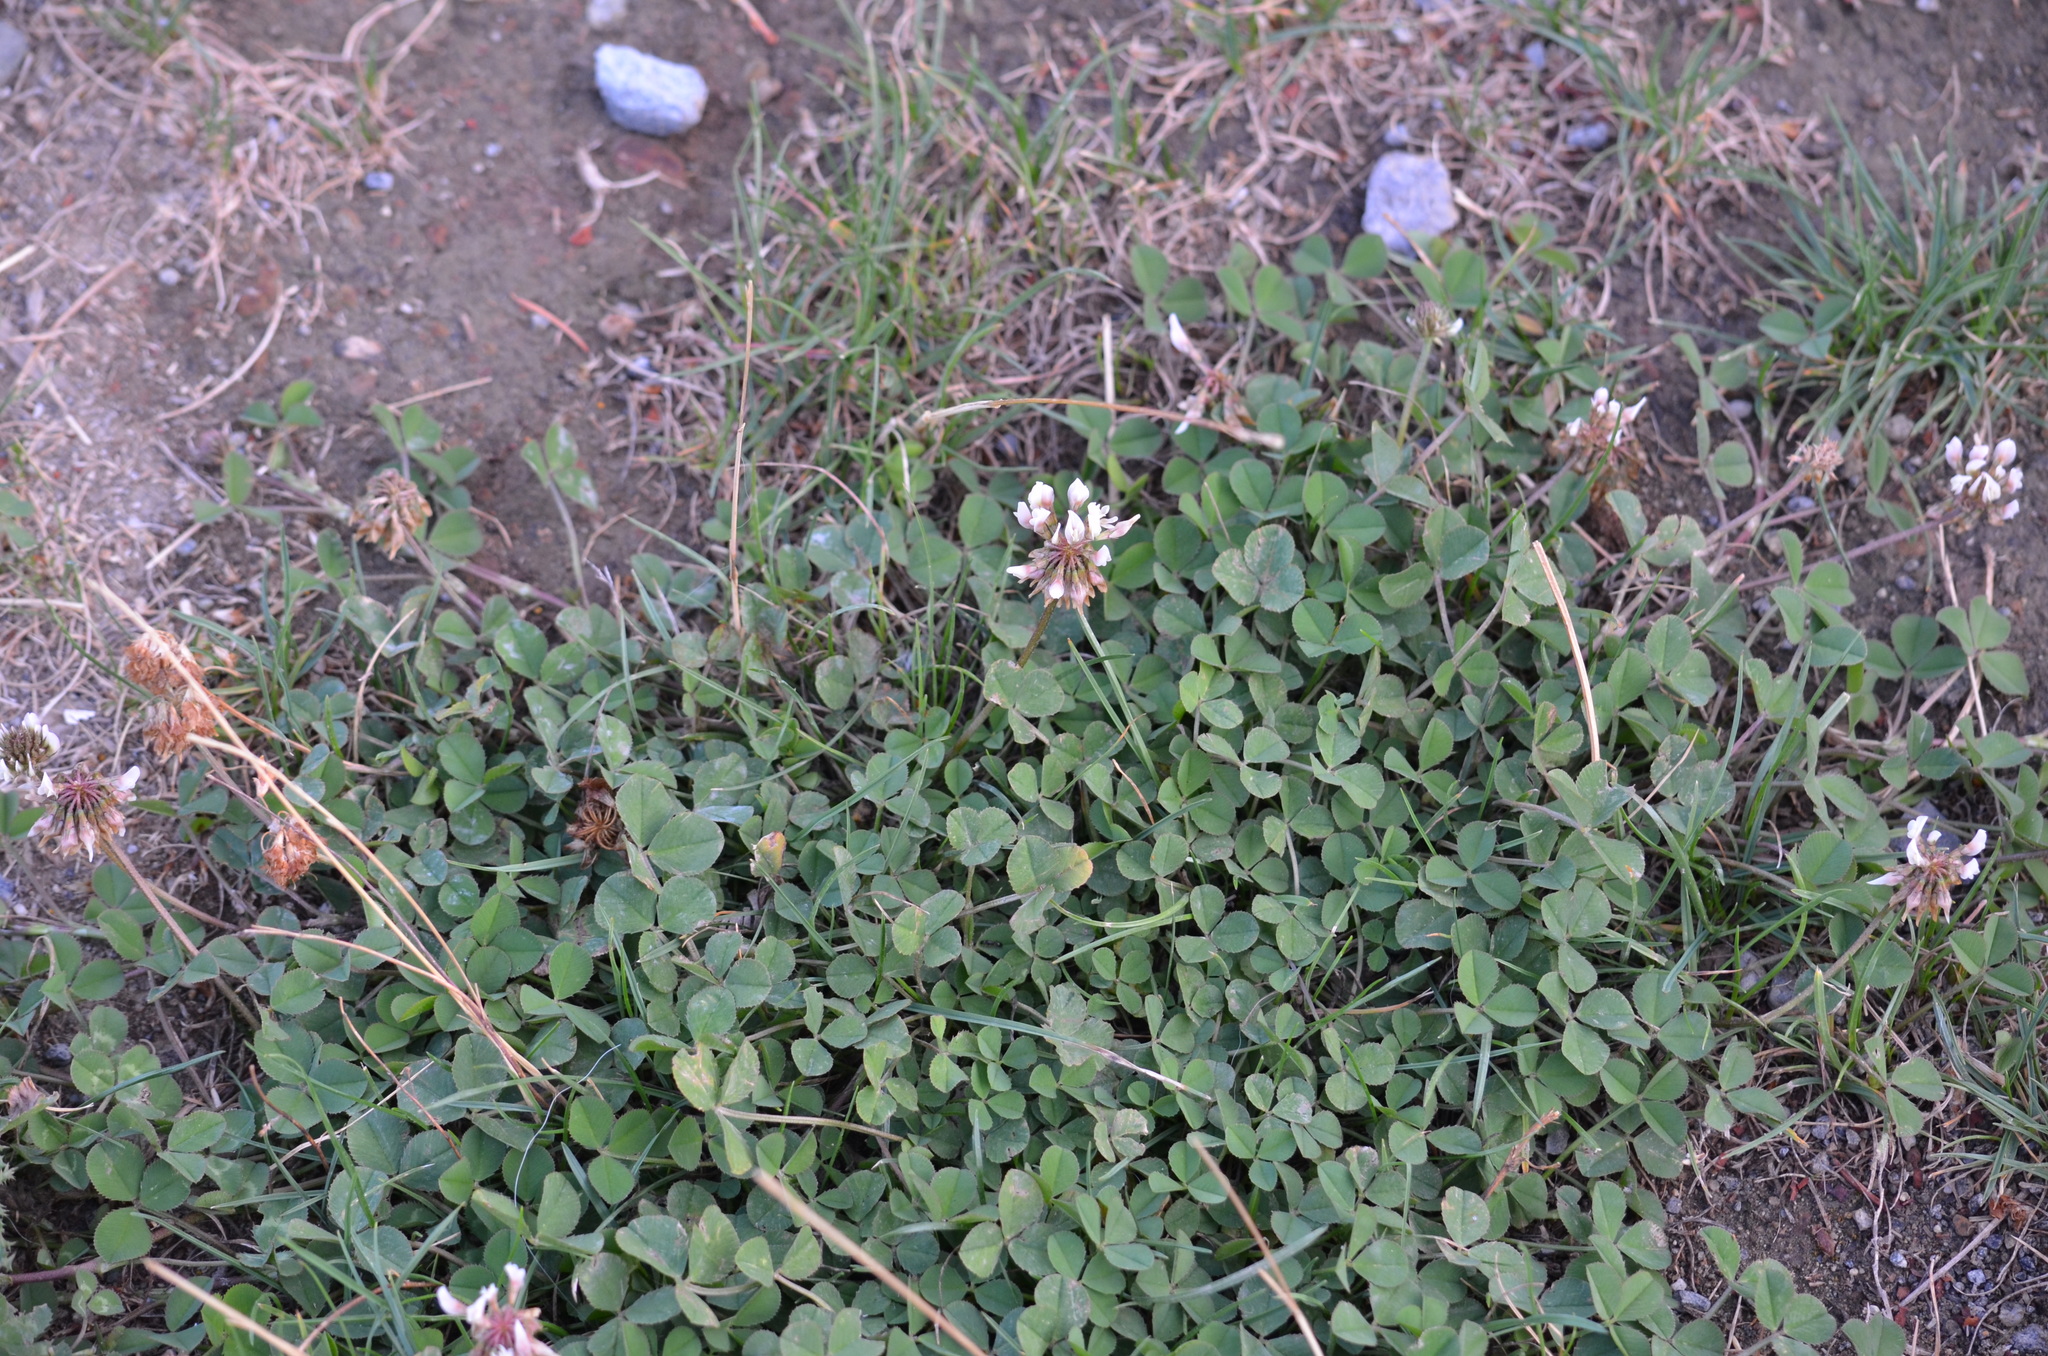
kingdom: Plantae
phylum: Tracheophyta
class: Magnoliopsida
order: Fabales
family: Fabaceae
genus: Trifolium
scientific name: Trifolium repens
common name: White clover
